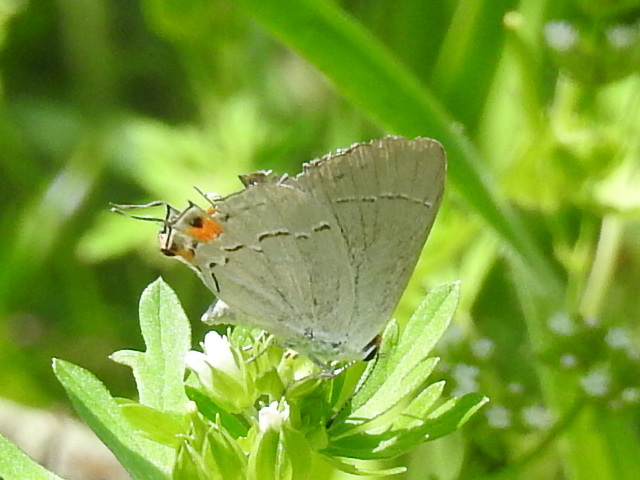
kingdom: Animalia
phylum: Arthropoda
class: Insecta
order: Lepidoptera
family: Lycaenidae
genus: Strymon
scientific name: Strymon melinus
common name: Gray hairstreak
